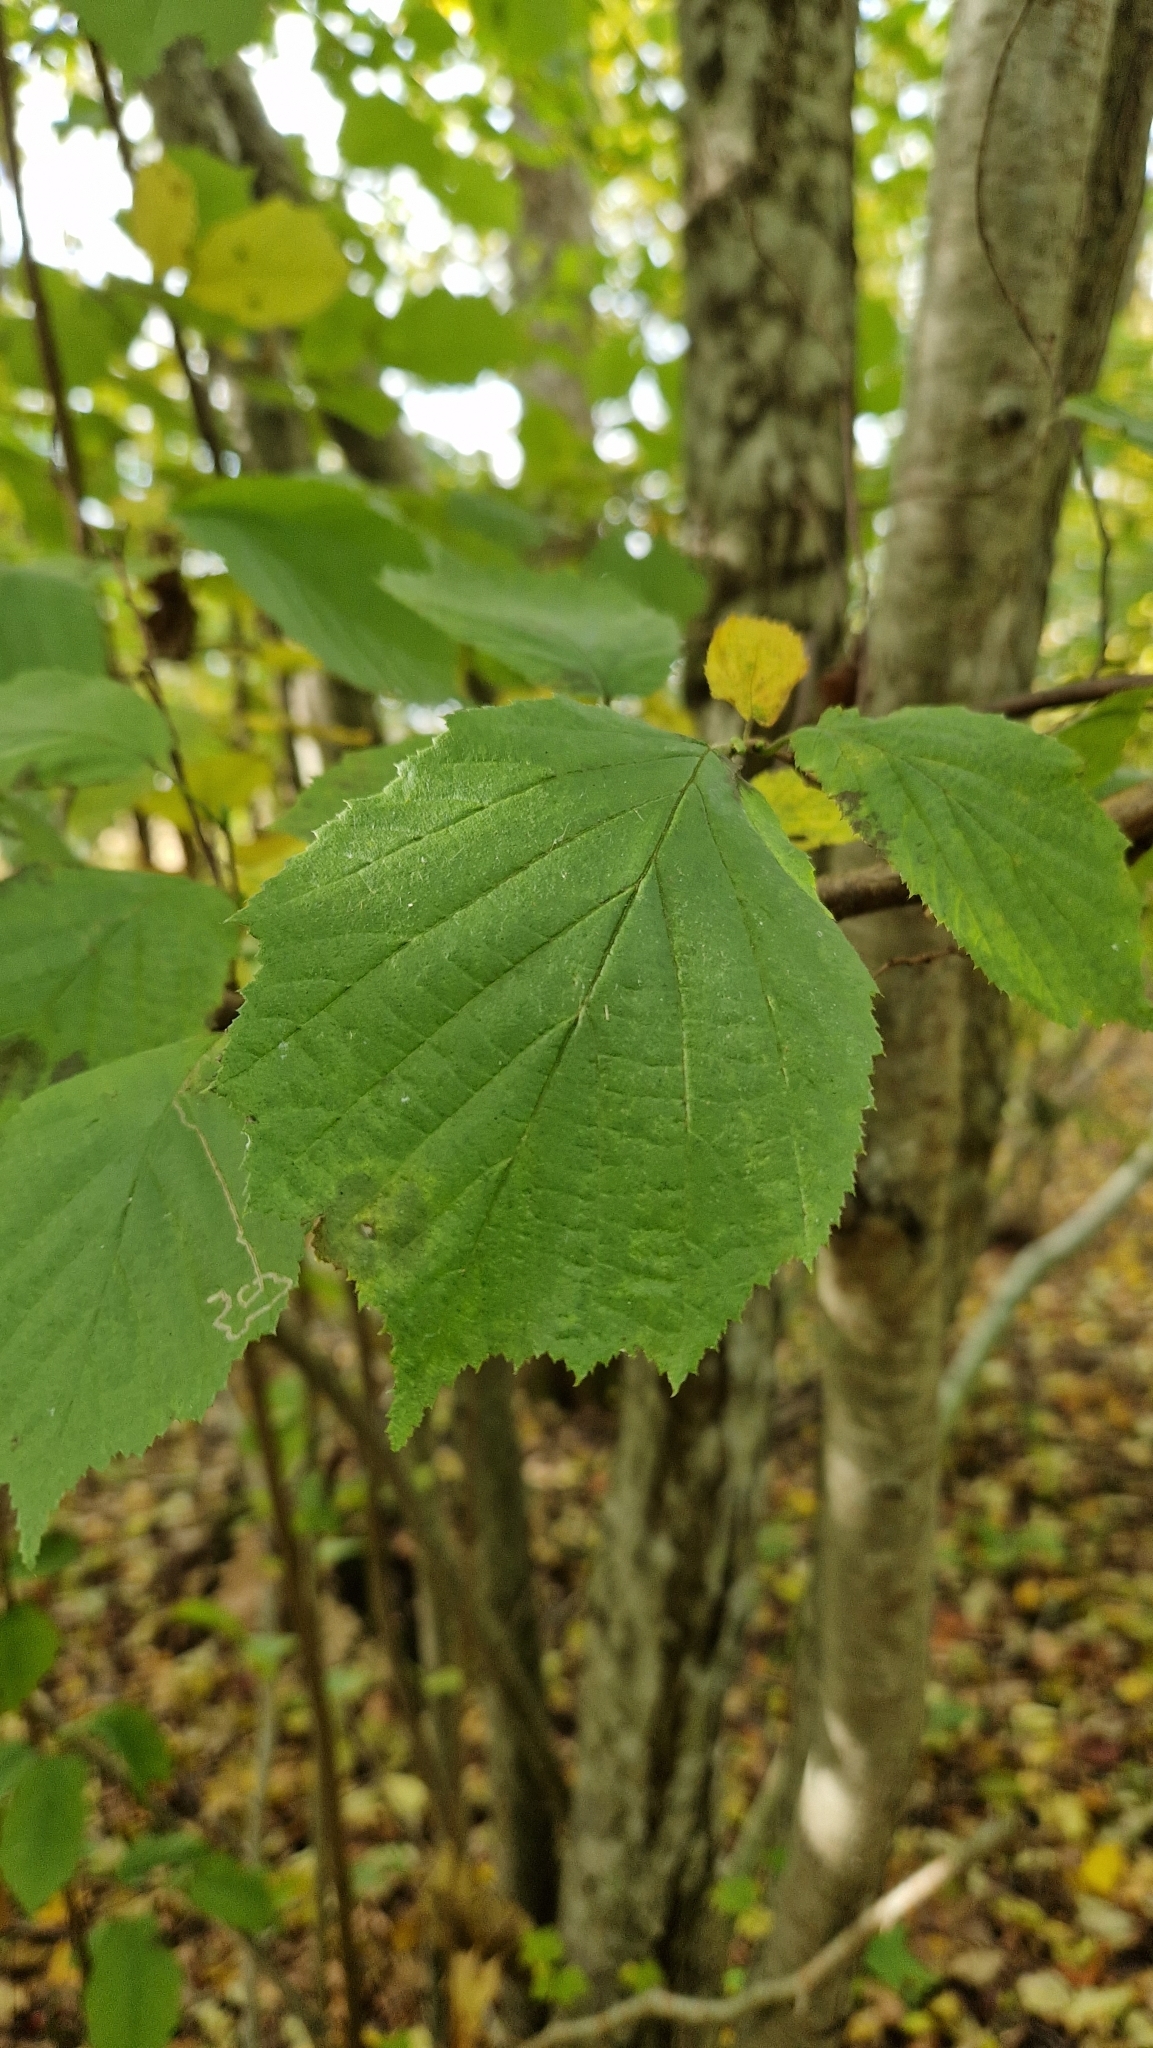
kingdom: Plantae
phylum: Tracheophyta
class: Magnoliopsida
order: Fagales
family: Betulaceae
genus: Corylus
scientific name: Corylus avellana
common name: European hazel
